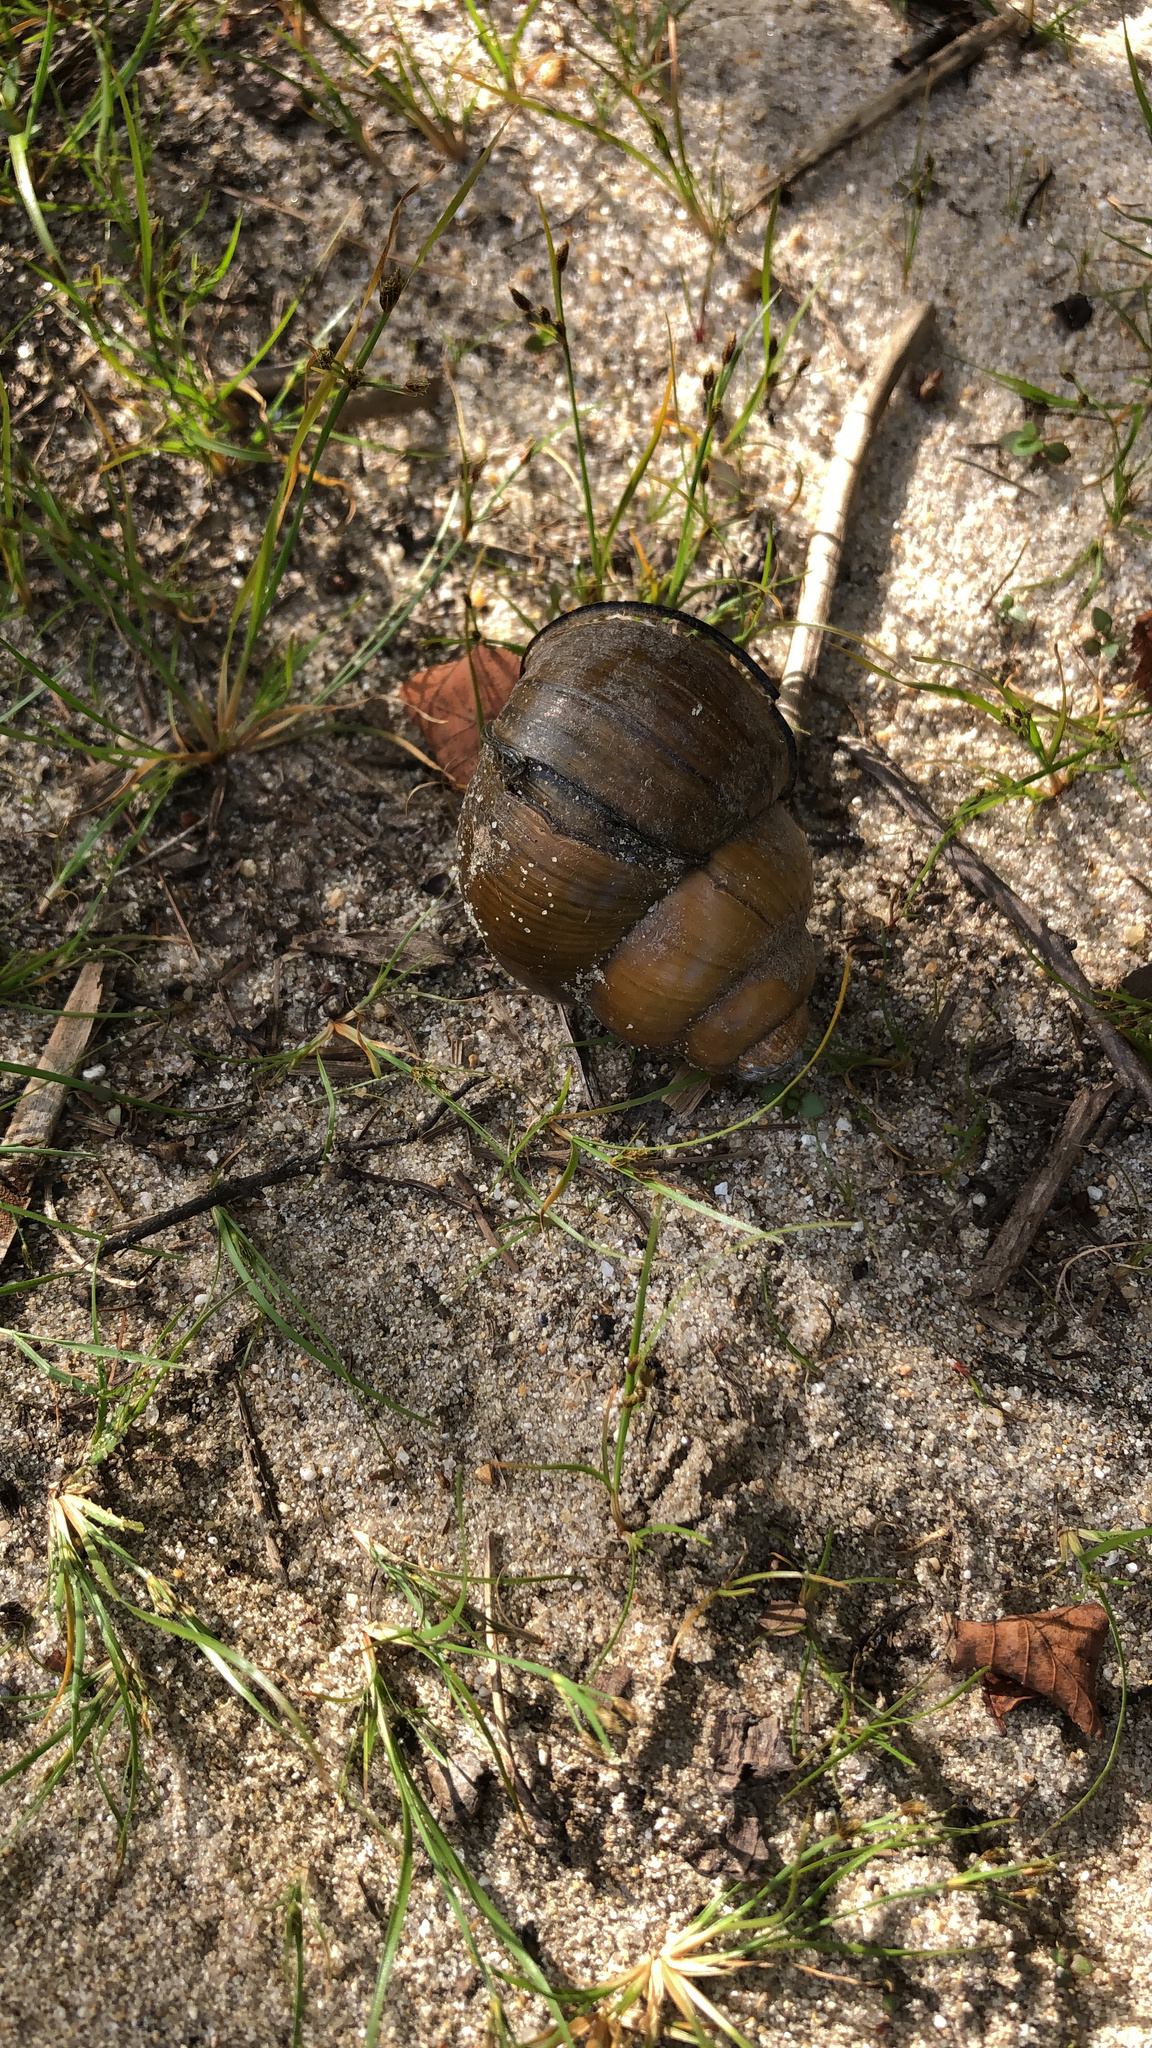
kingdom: Animalia
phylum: Mollusca
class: Gastropoda
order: Architaenioglossa
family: Viviparidae
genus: Cipangopaludina
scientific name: Cipangopaludina chinensis
